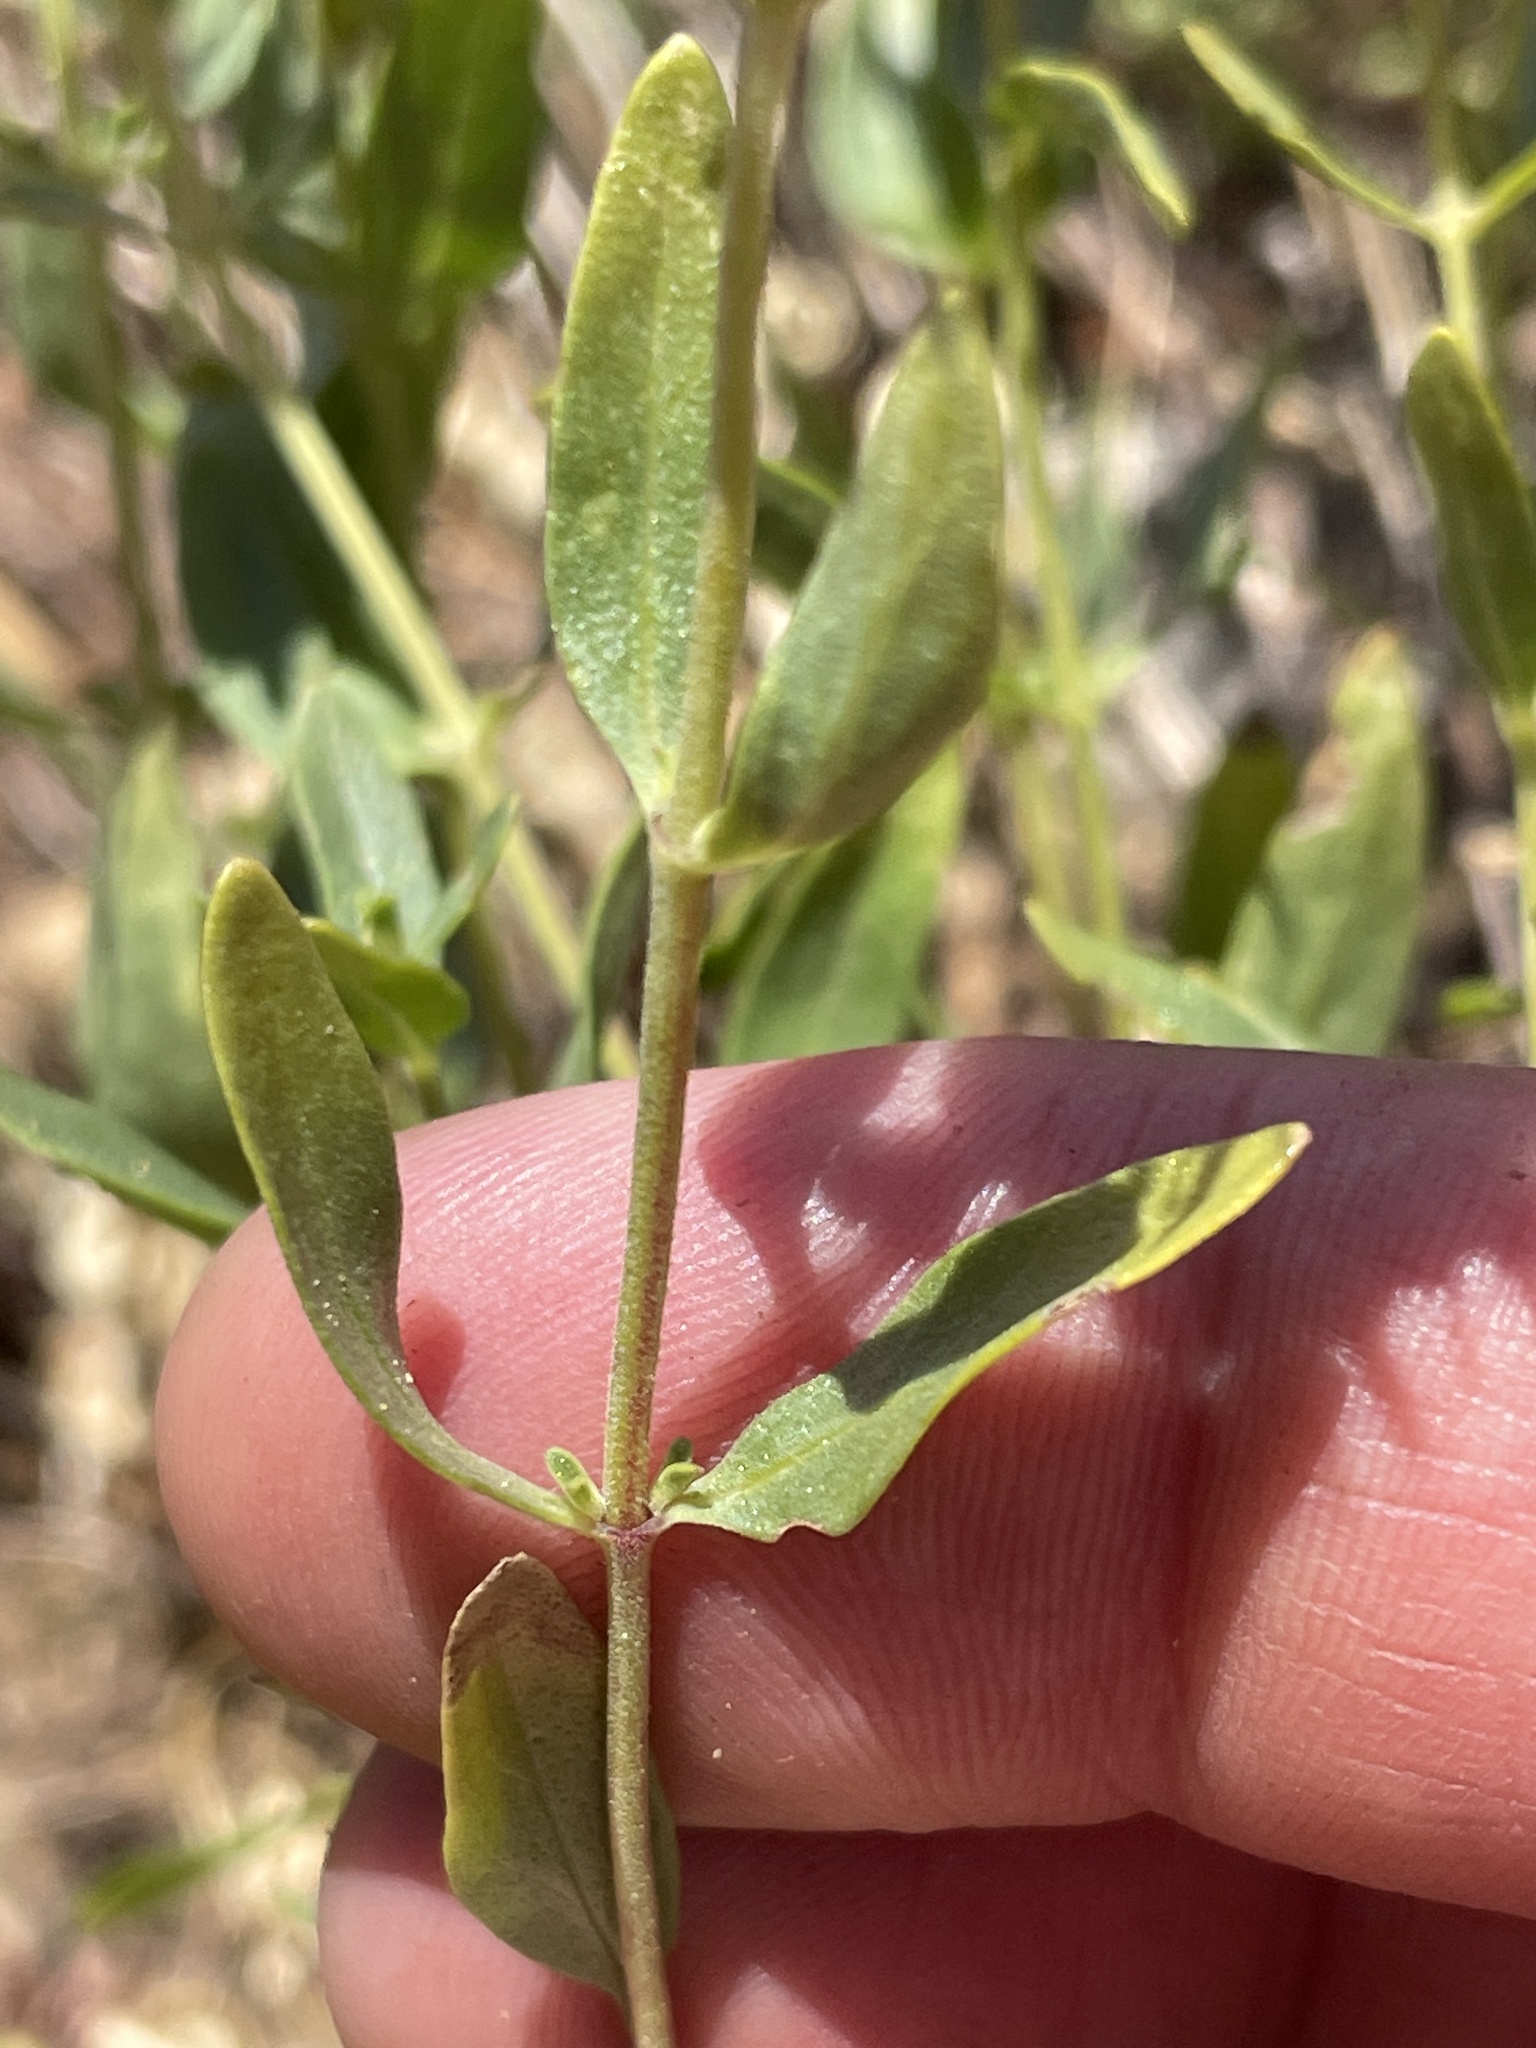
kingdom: Plantae
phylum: Tracheophyta
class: Magnoliopsida
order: Lamiales
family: Lamiaceae
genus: Monardella
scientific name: Monardella odoratissima
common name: Pacific monardella
